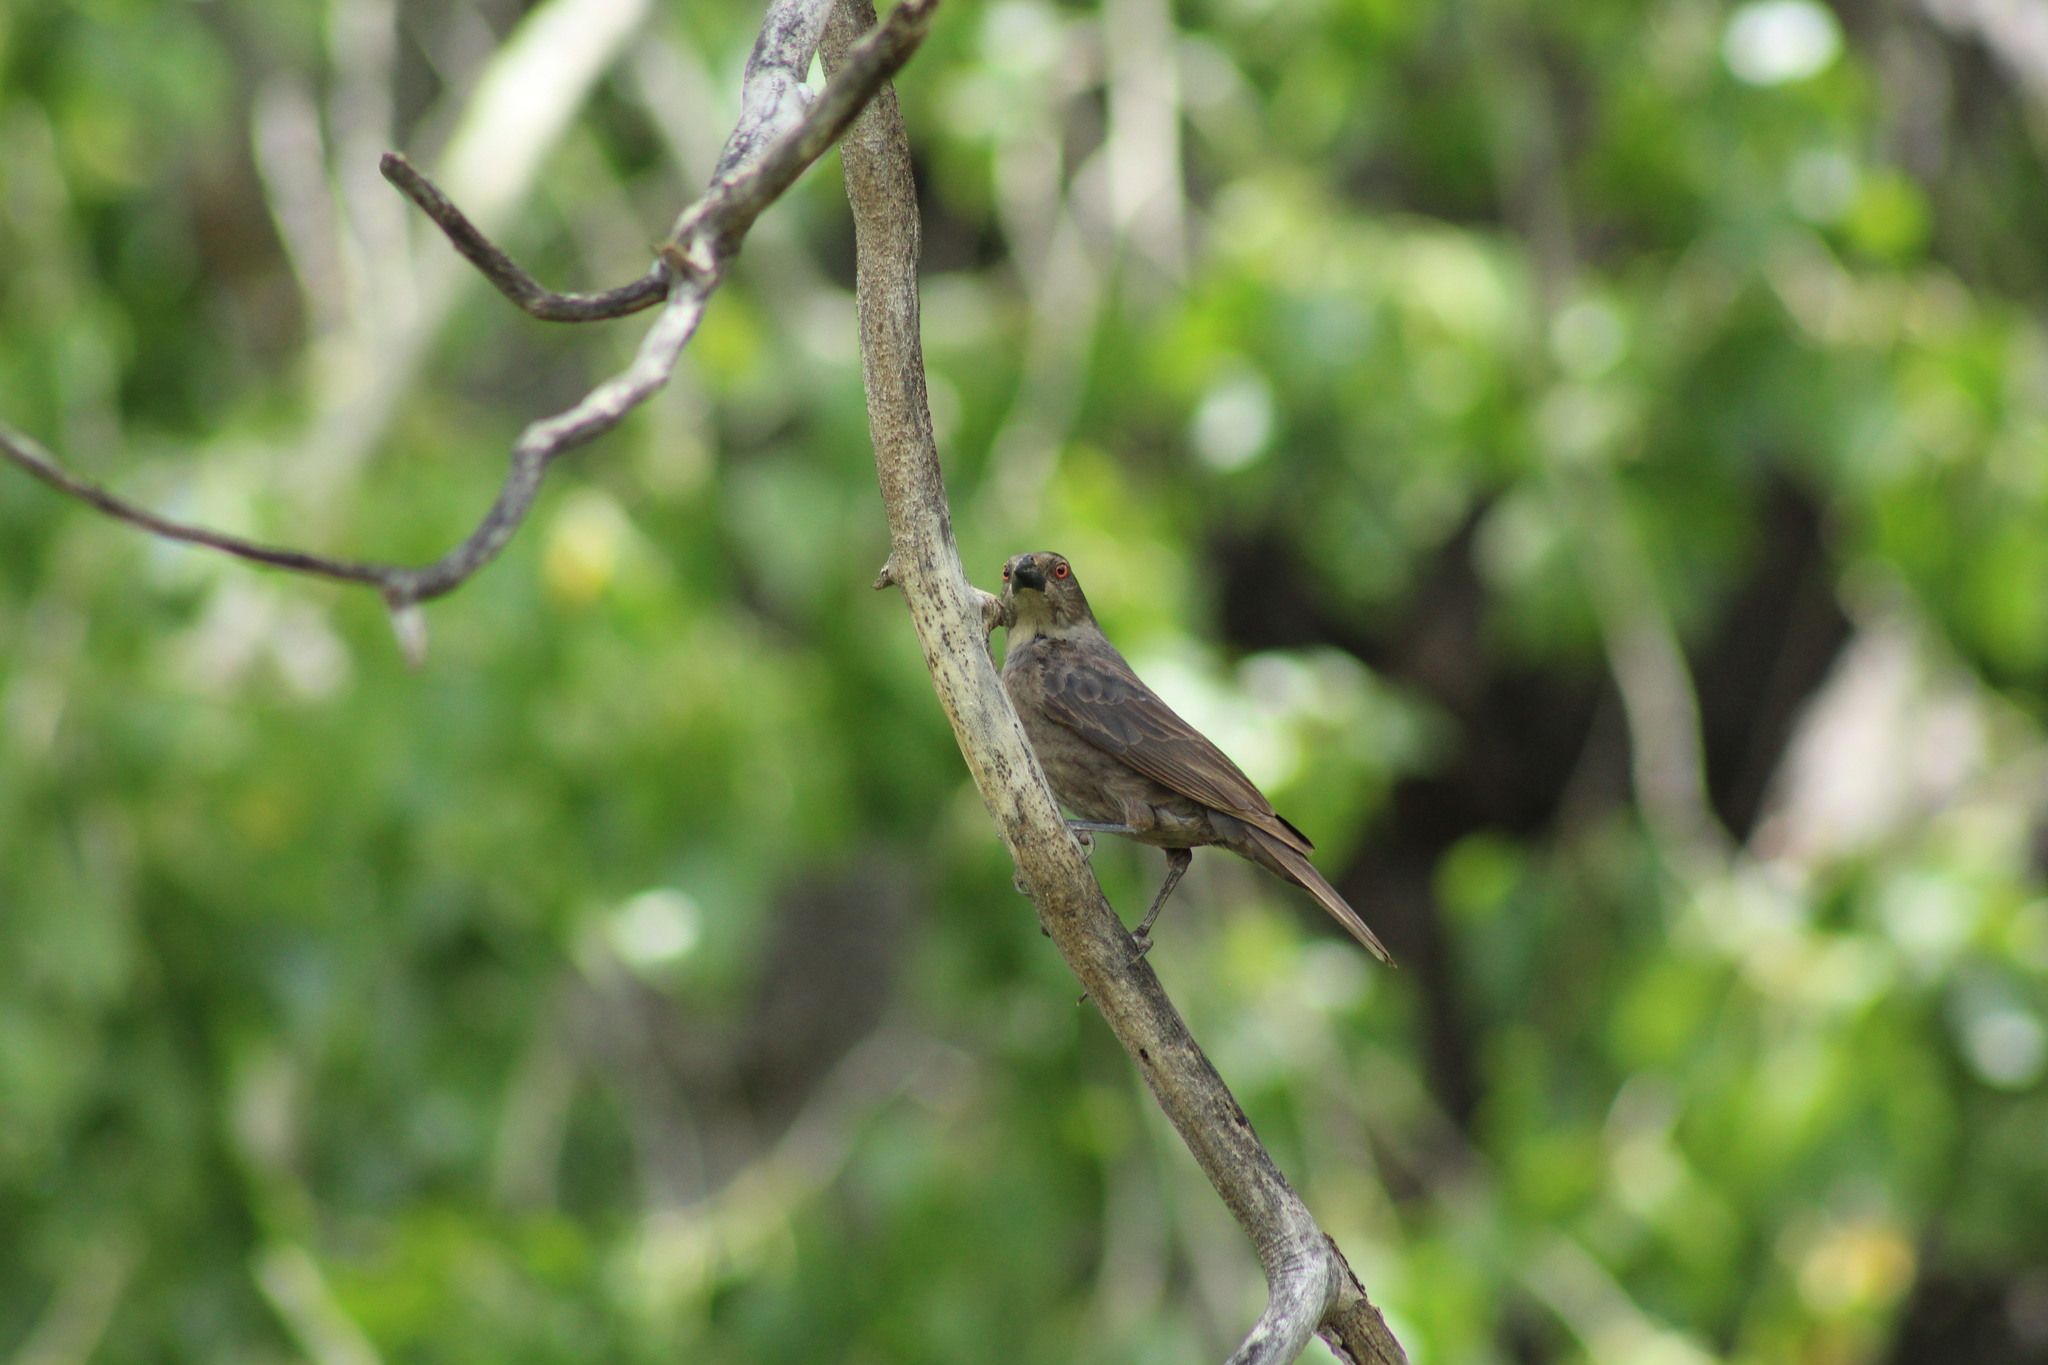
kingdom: Animalia
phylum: Chordata
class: Aves
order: Passeriformes
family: Icteridae
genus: Molothrus
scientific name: Molothrus aeneus
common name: Bronzed cowbird
